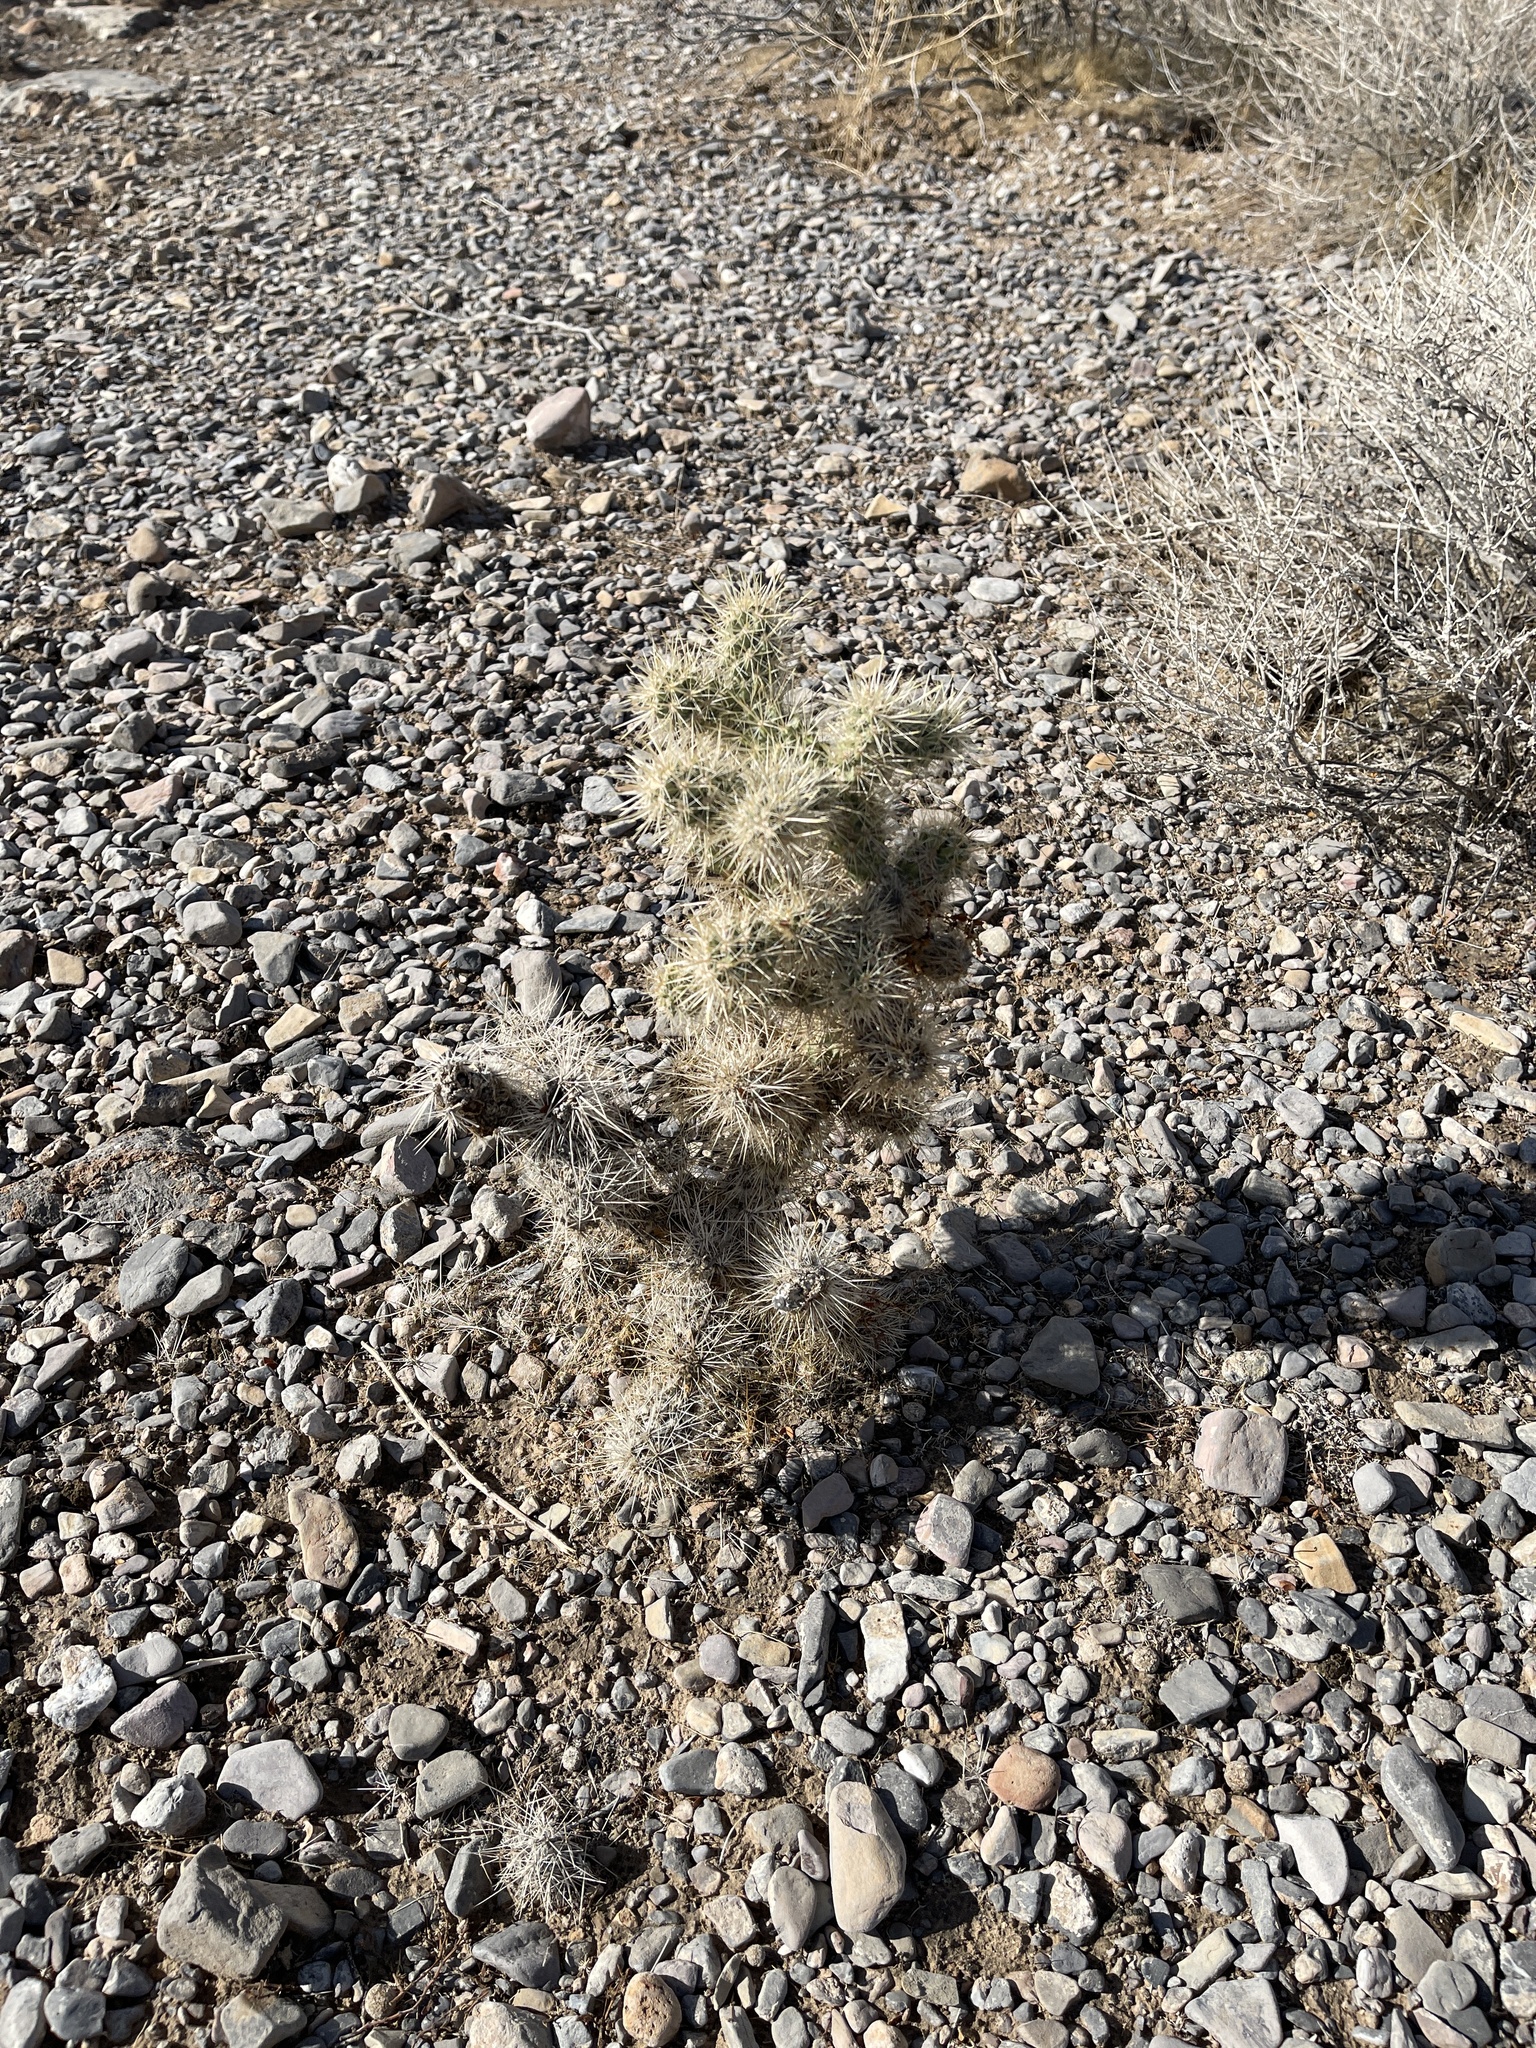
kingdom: Plantae
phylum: Tracheophyta
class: Magnoliopsida
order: Caryophyllales
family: Cactaceae
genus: Cylindropuntia
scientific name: Cylindropuntia echinocarpa
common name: Ground cholla
